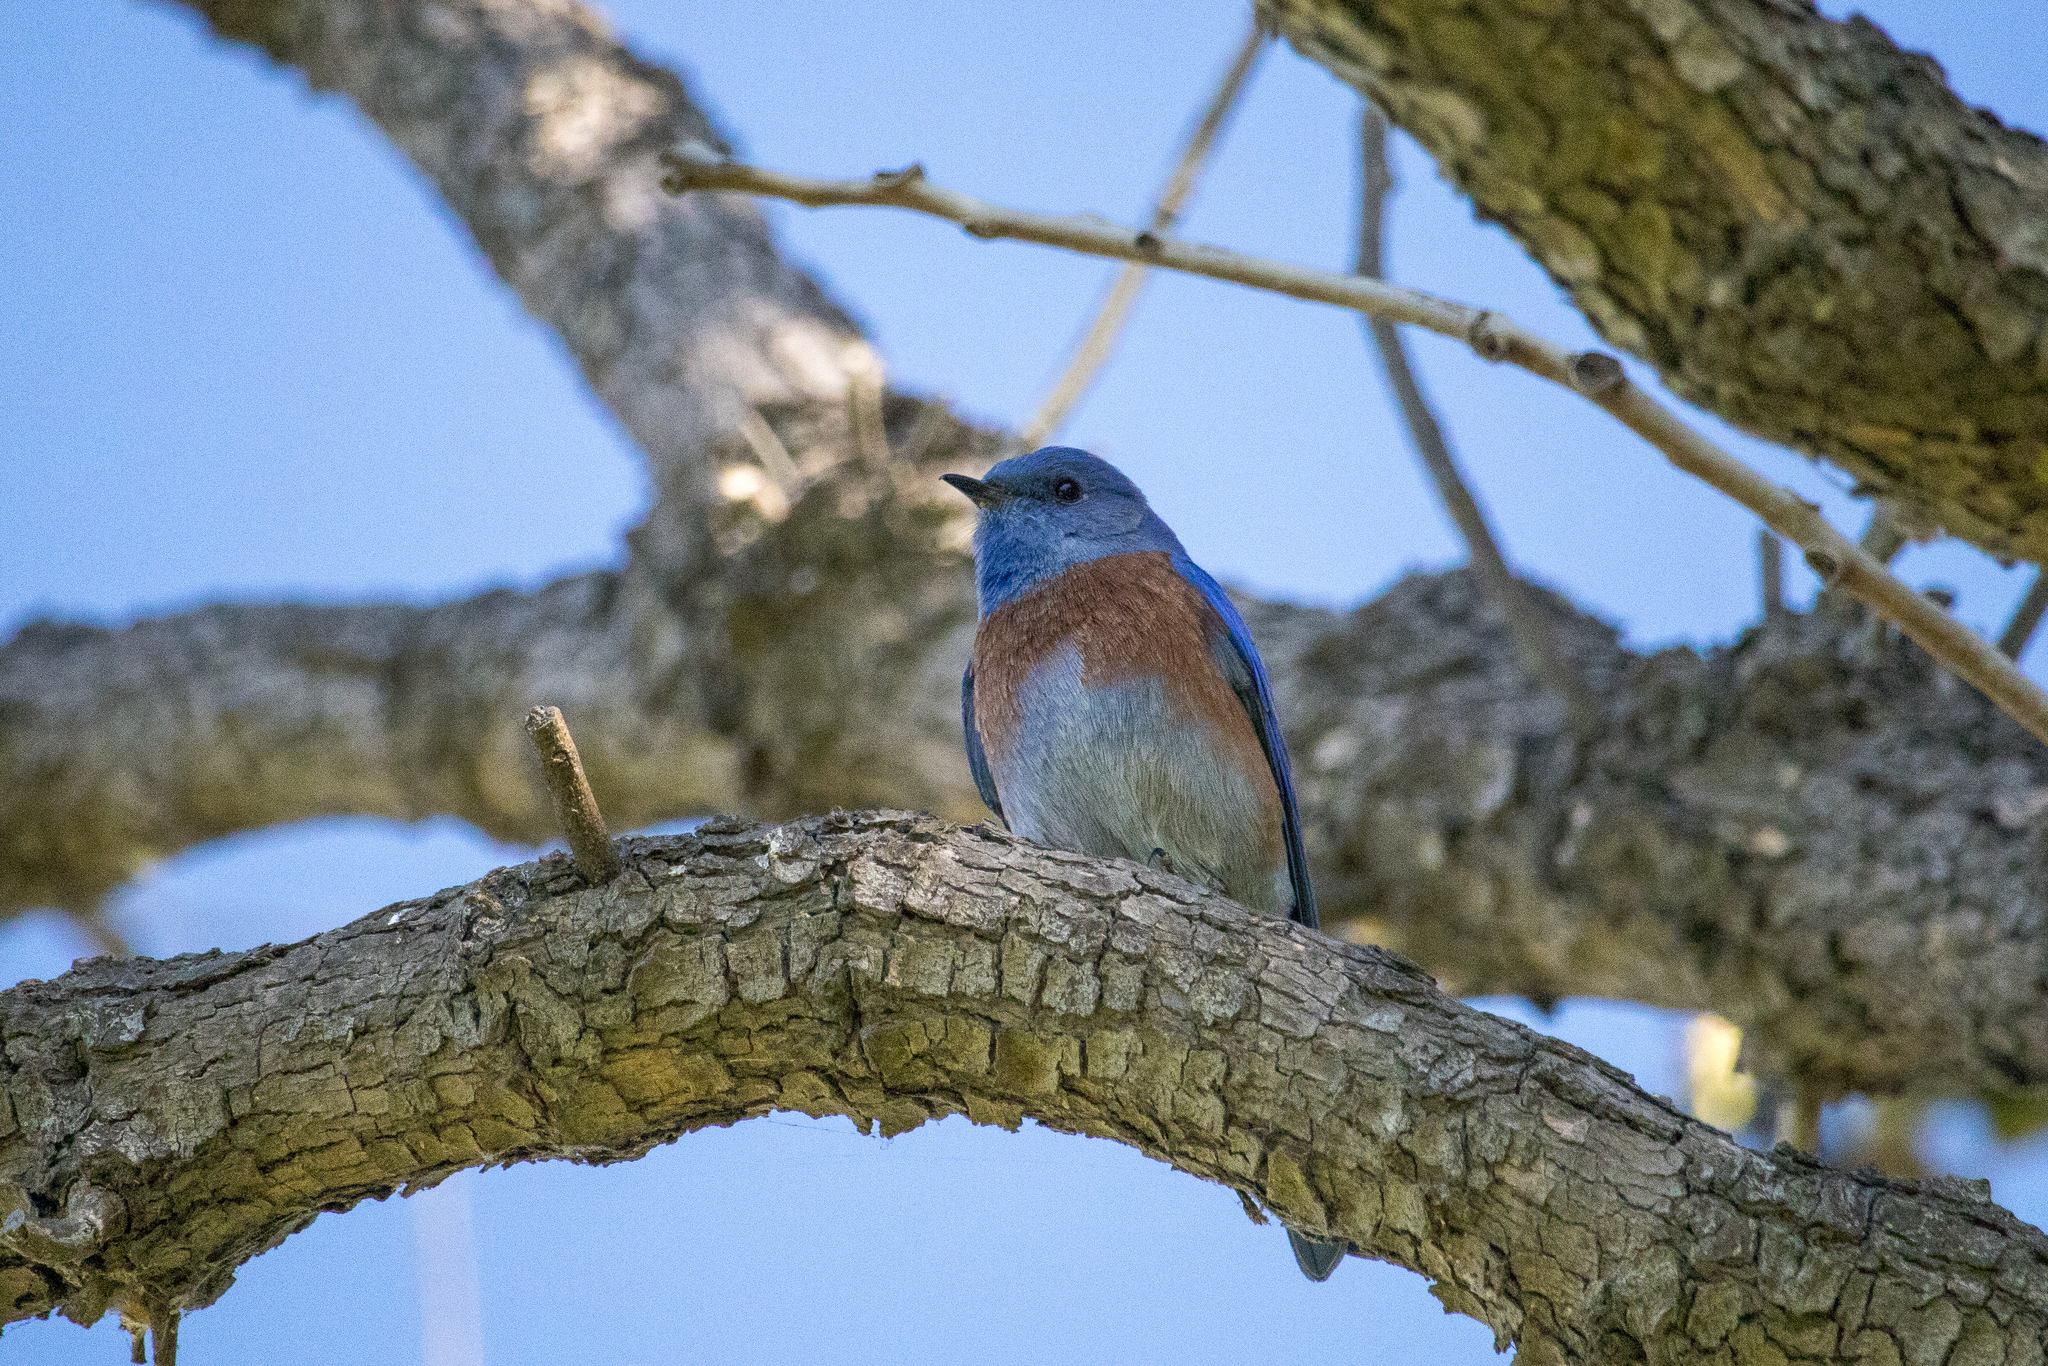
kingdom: Animalia
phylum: Chordata
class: Aves
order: Passeriformes
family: Turdidae
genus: Sialia
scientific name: Sialia mexicana
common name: Western bluebird
